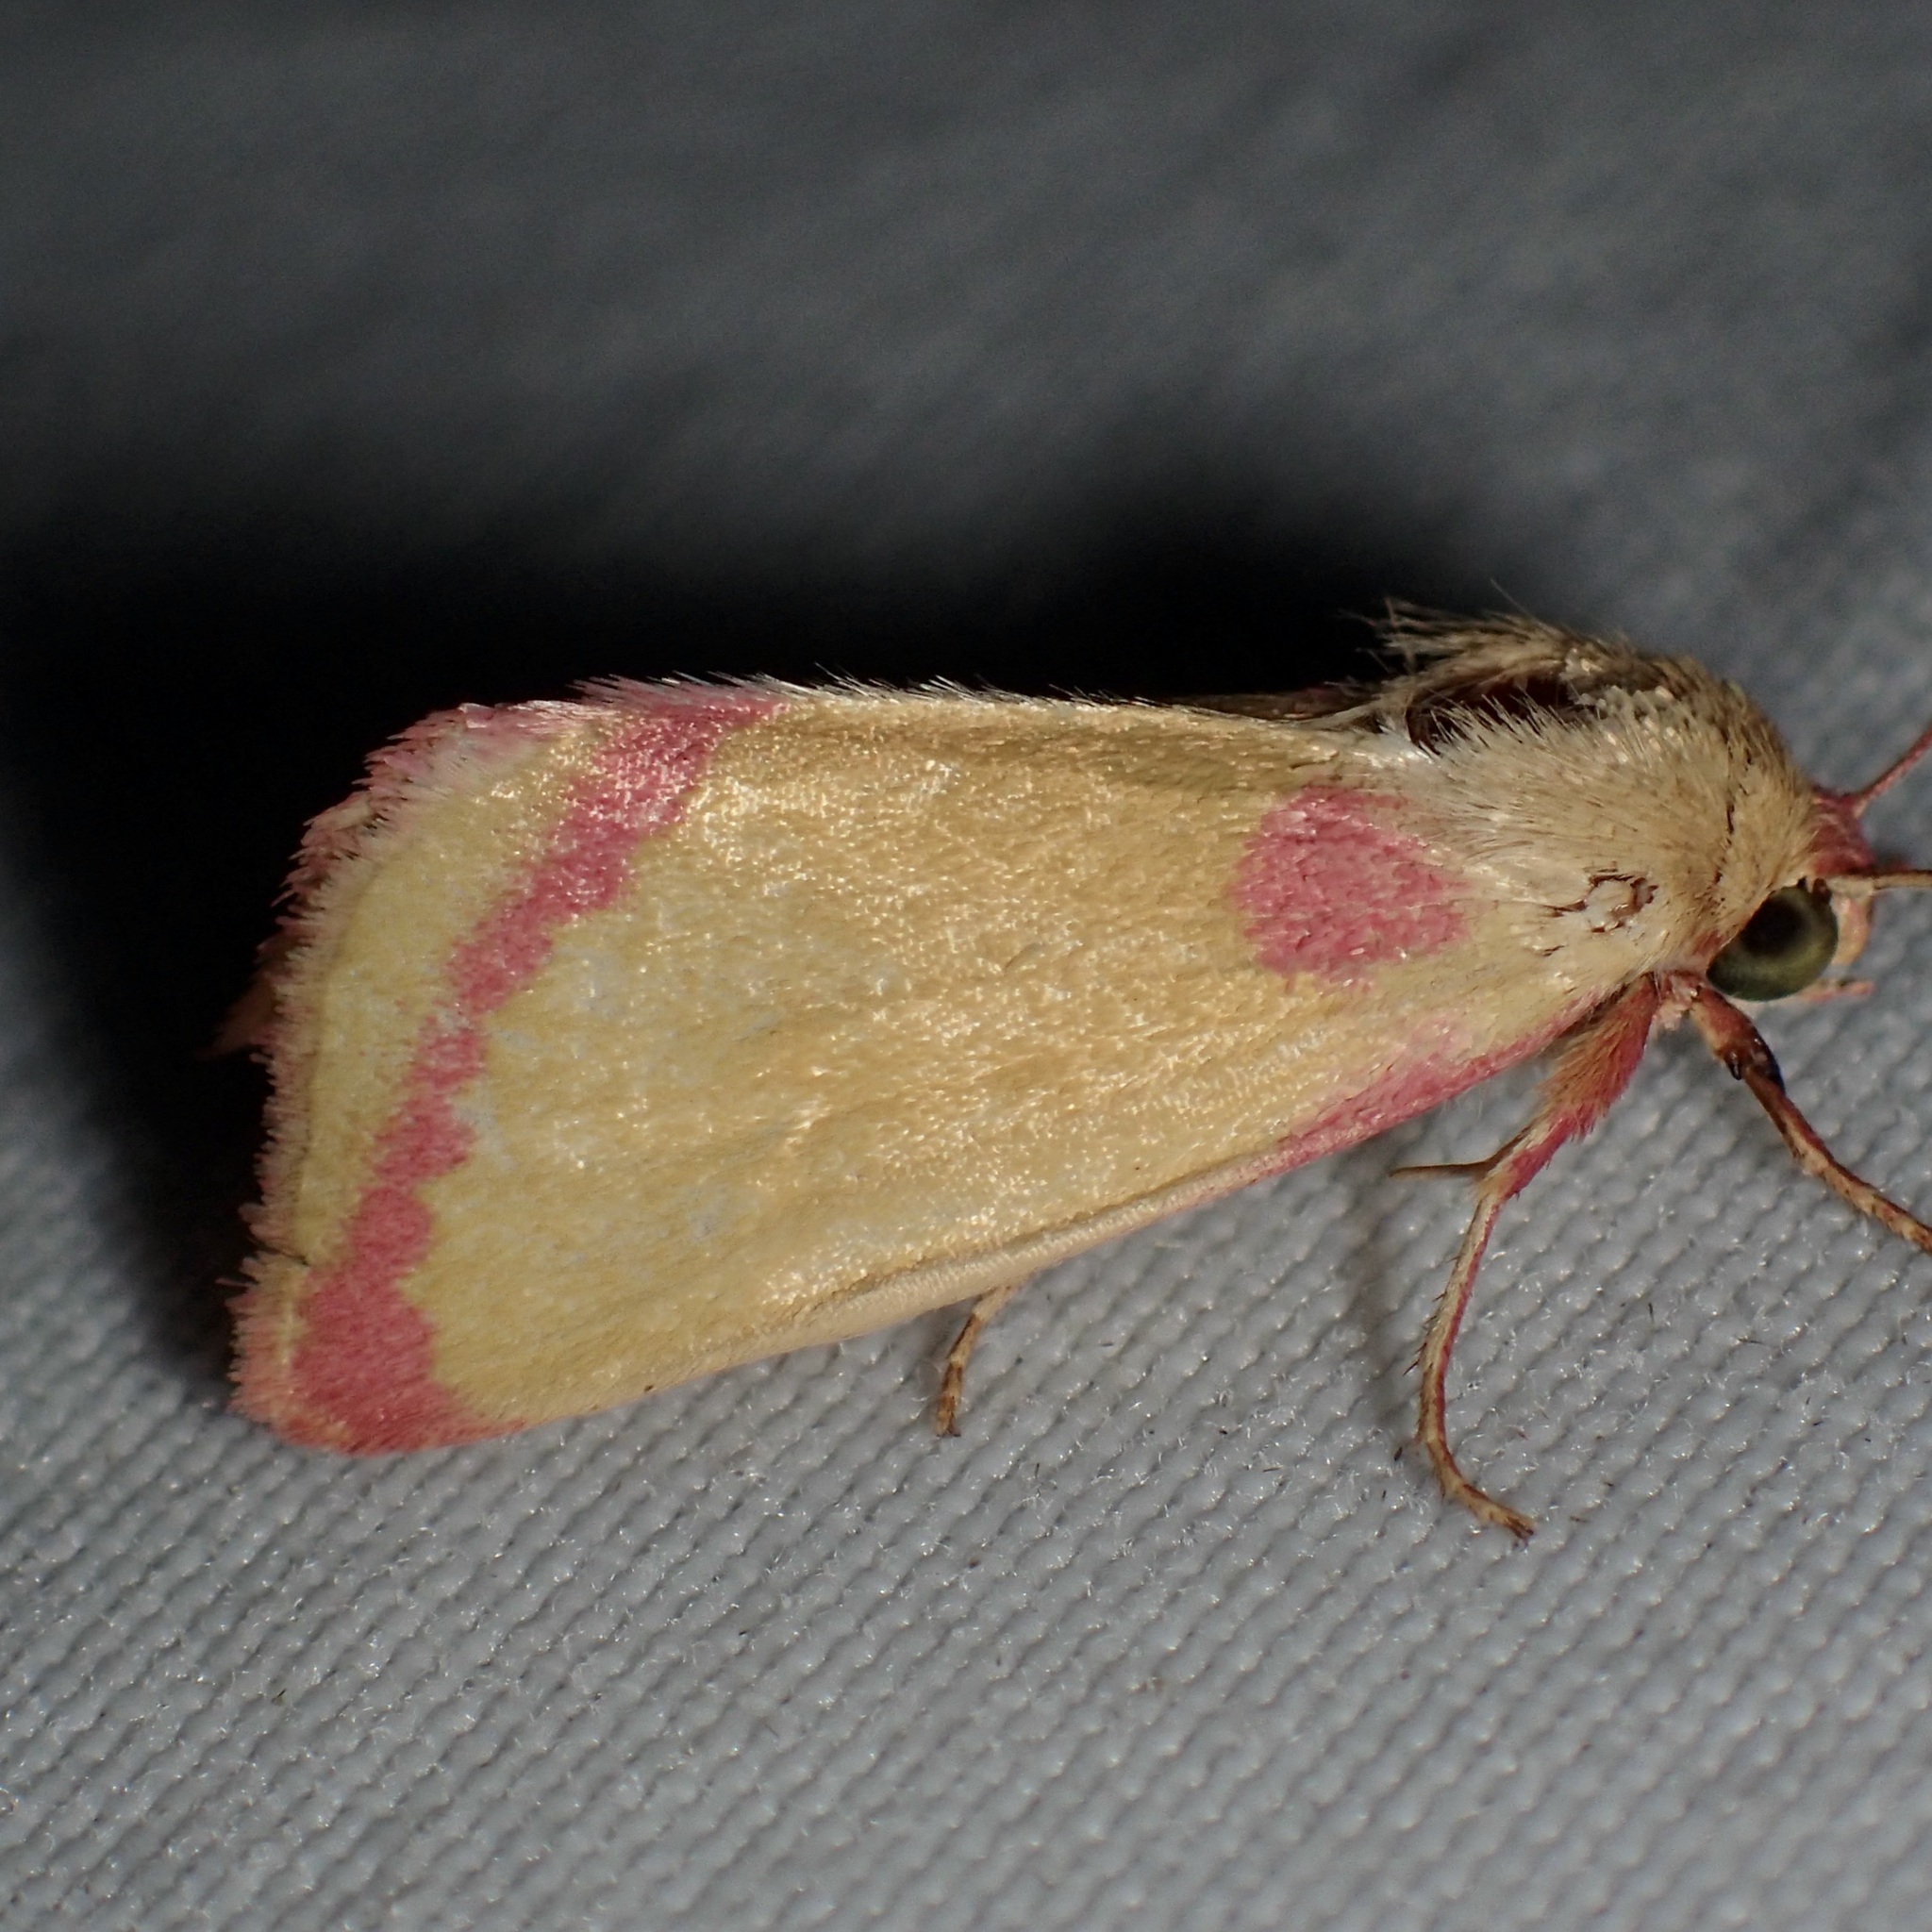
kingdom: Animalia
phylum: Arthropoda
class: Insecta
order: Lepidoptera
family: Noctuidae
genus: Heliocheilus
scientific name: Heliocheilus toralis
